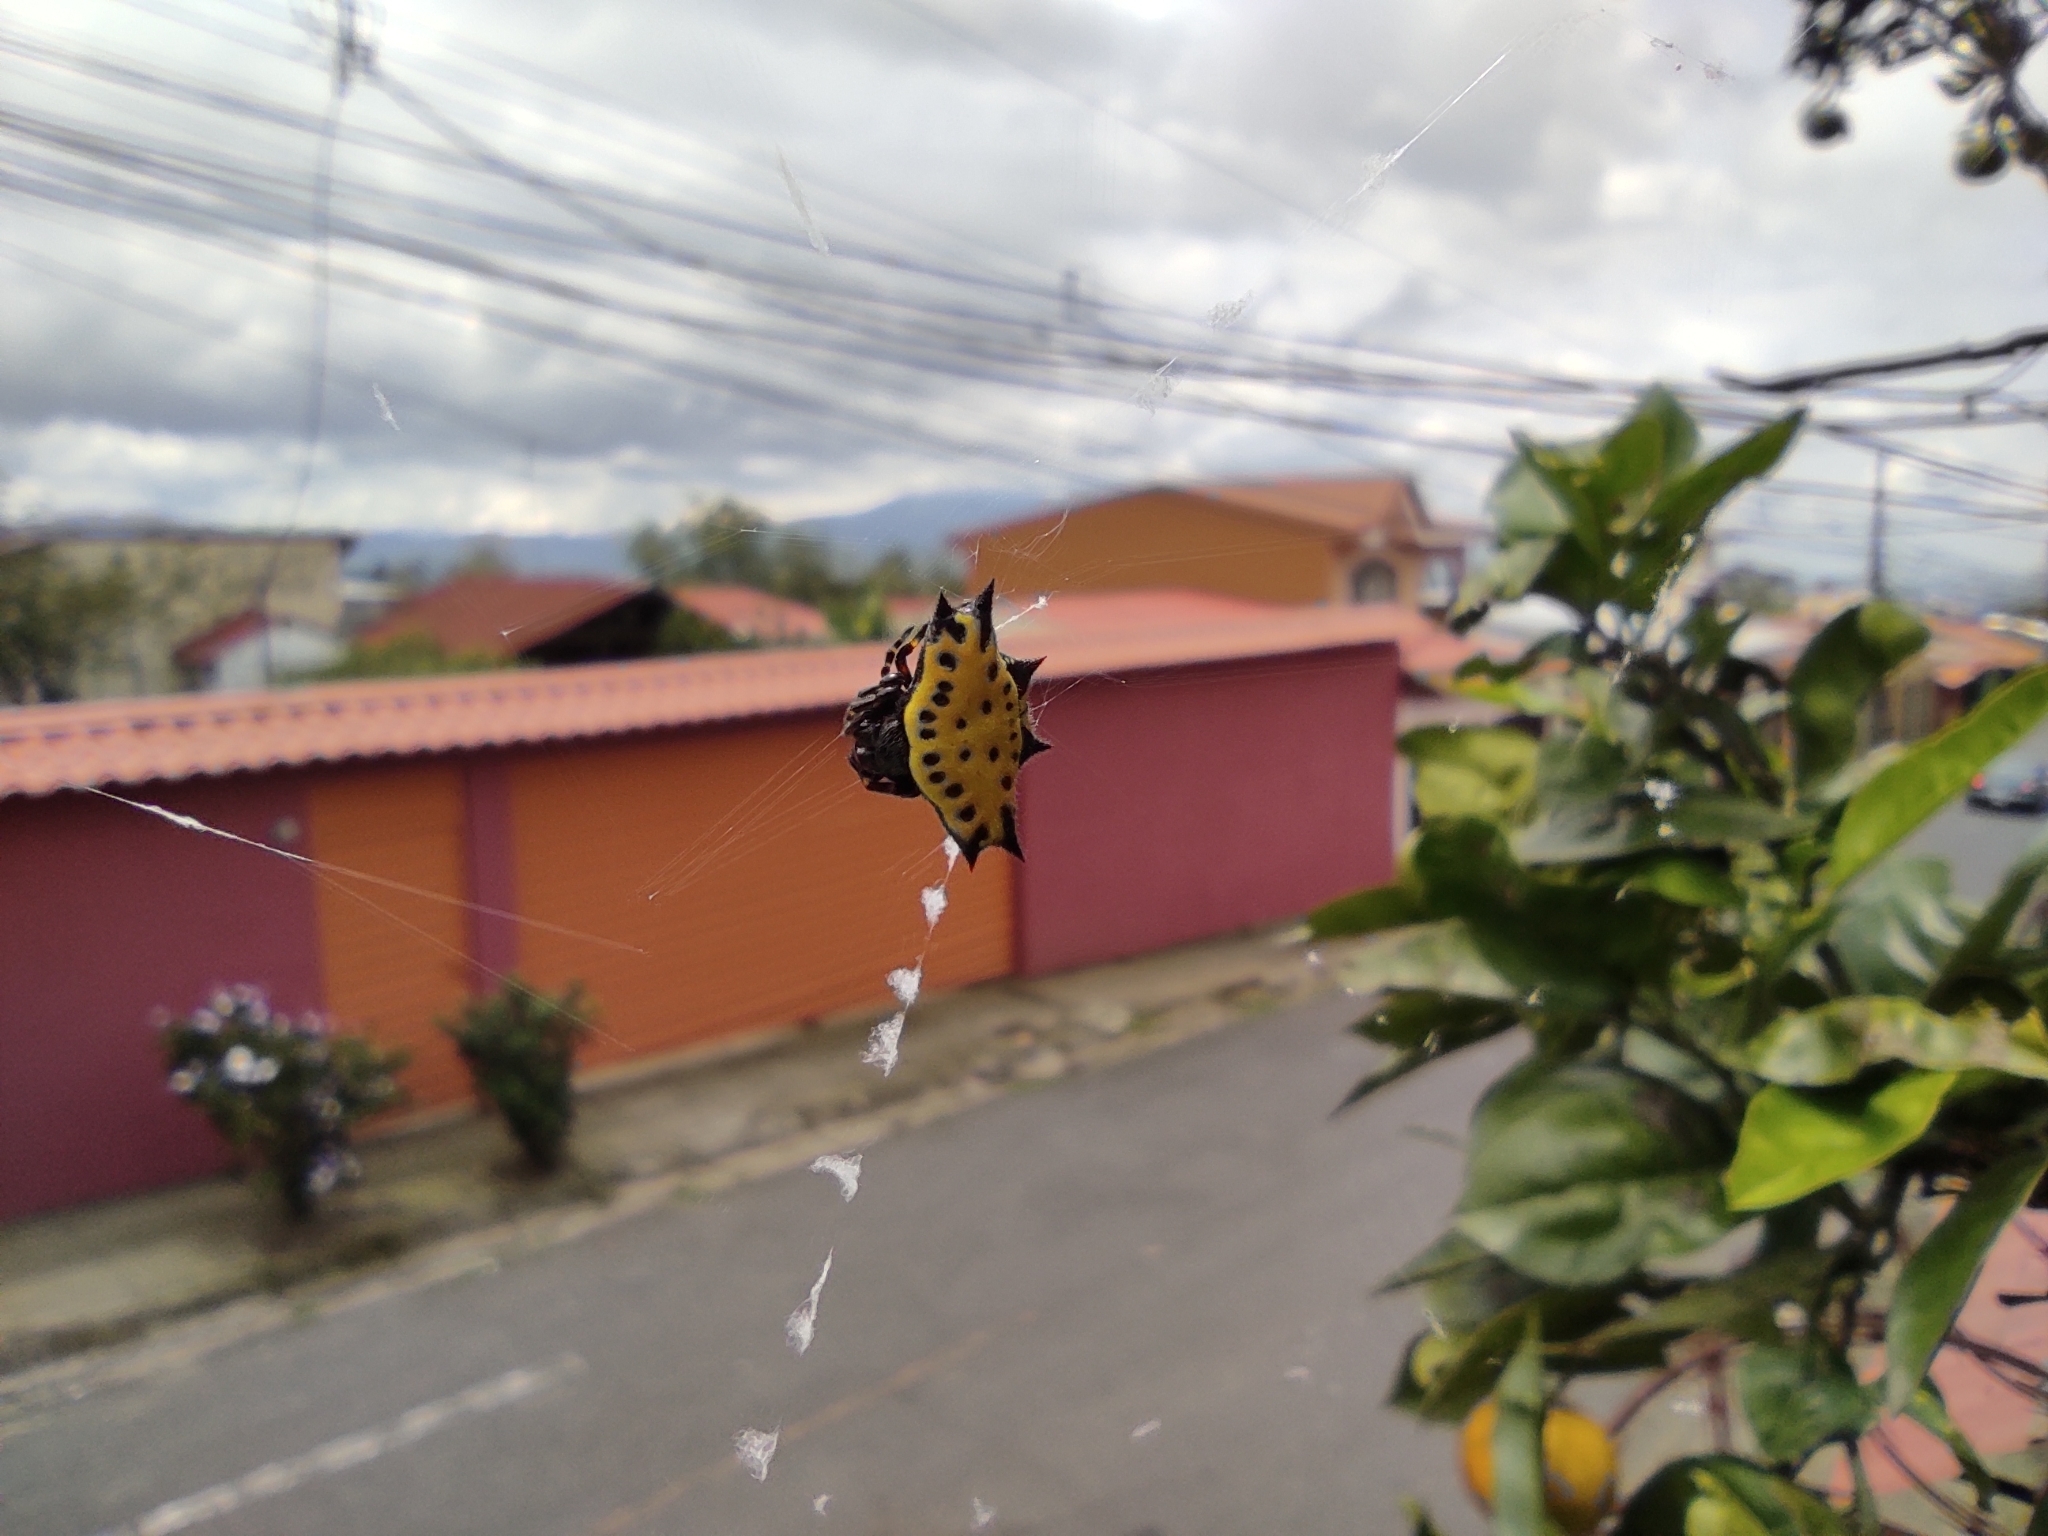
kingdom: Animalia
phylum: Arthropoda
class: Arachnida
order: Araneae
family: Araneidae
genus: Gasteracantha
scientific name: Gasteracantha cancriformis
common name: Orb weavers
